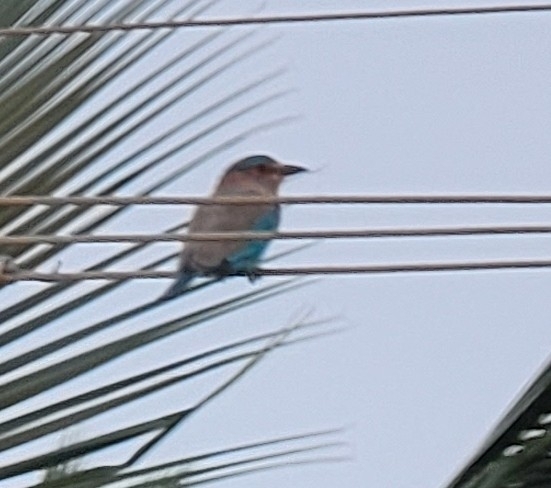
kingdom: Animalia
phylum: Chordata
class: Aves
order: Coraciiformes
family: Coraciidae
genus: Coracias
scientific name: Coracias benghalensis
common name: Indian roller
